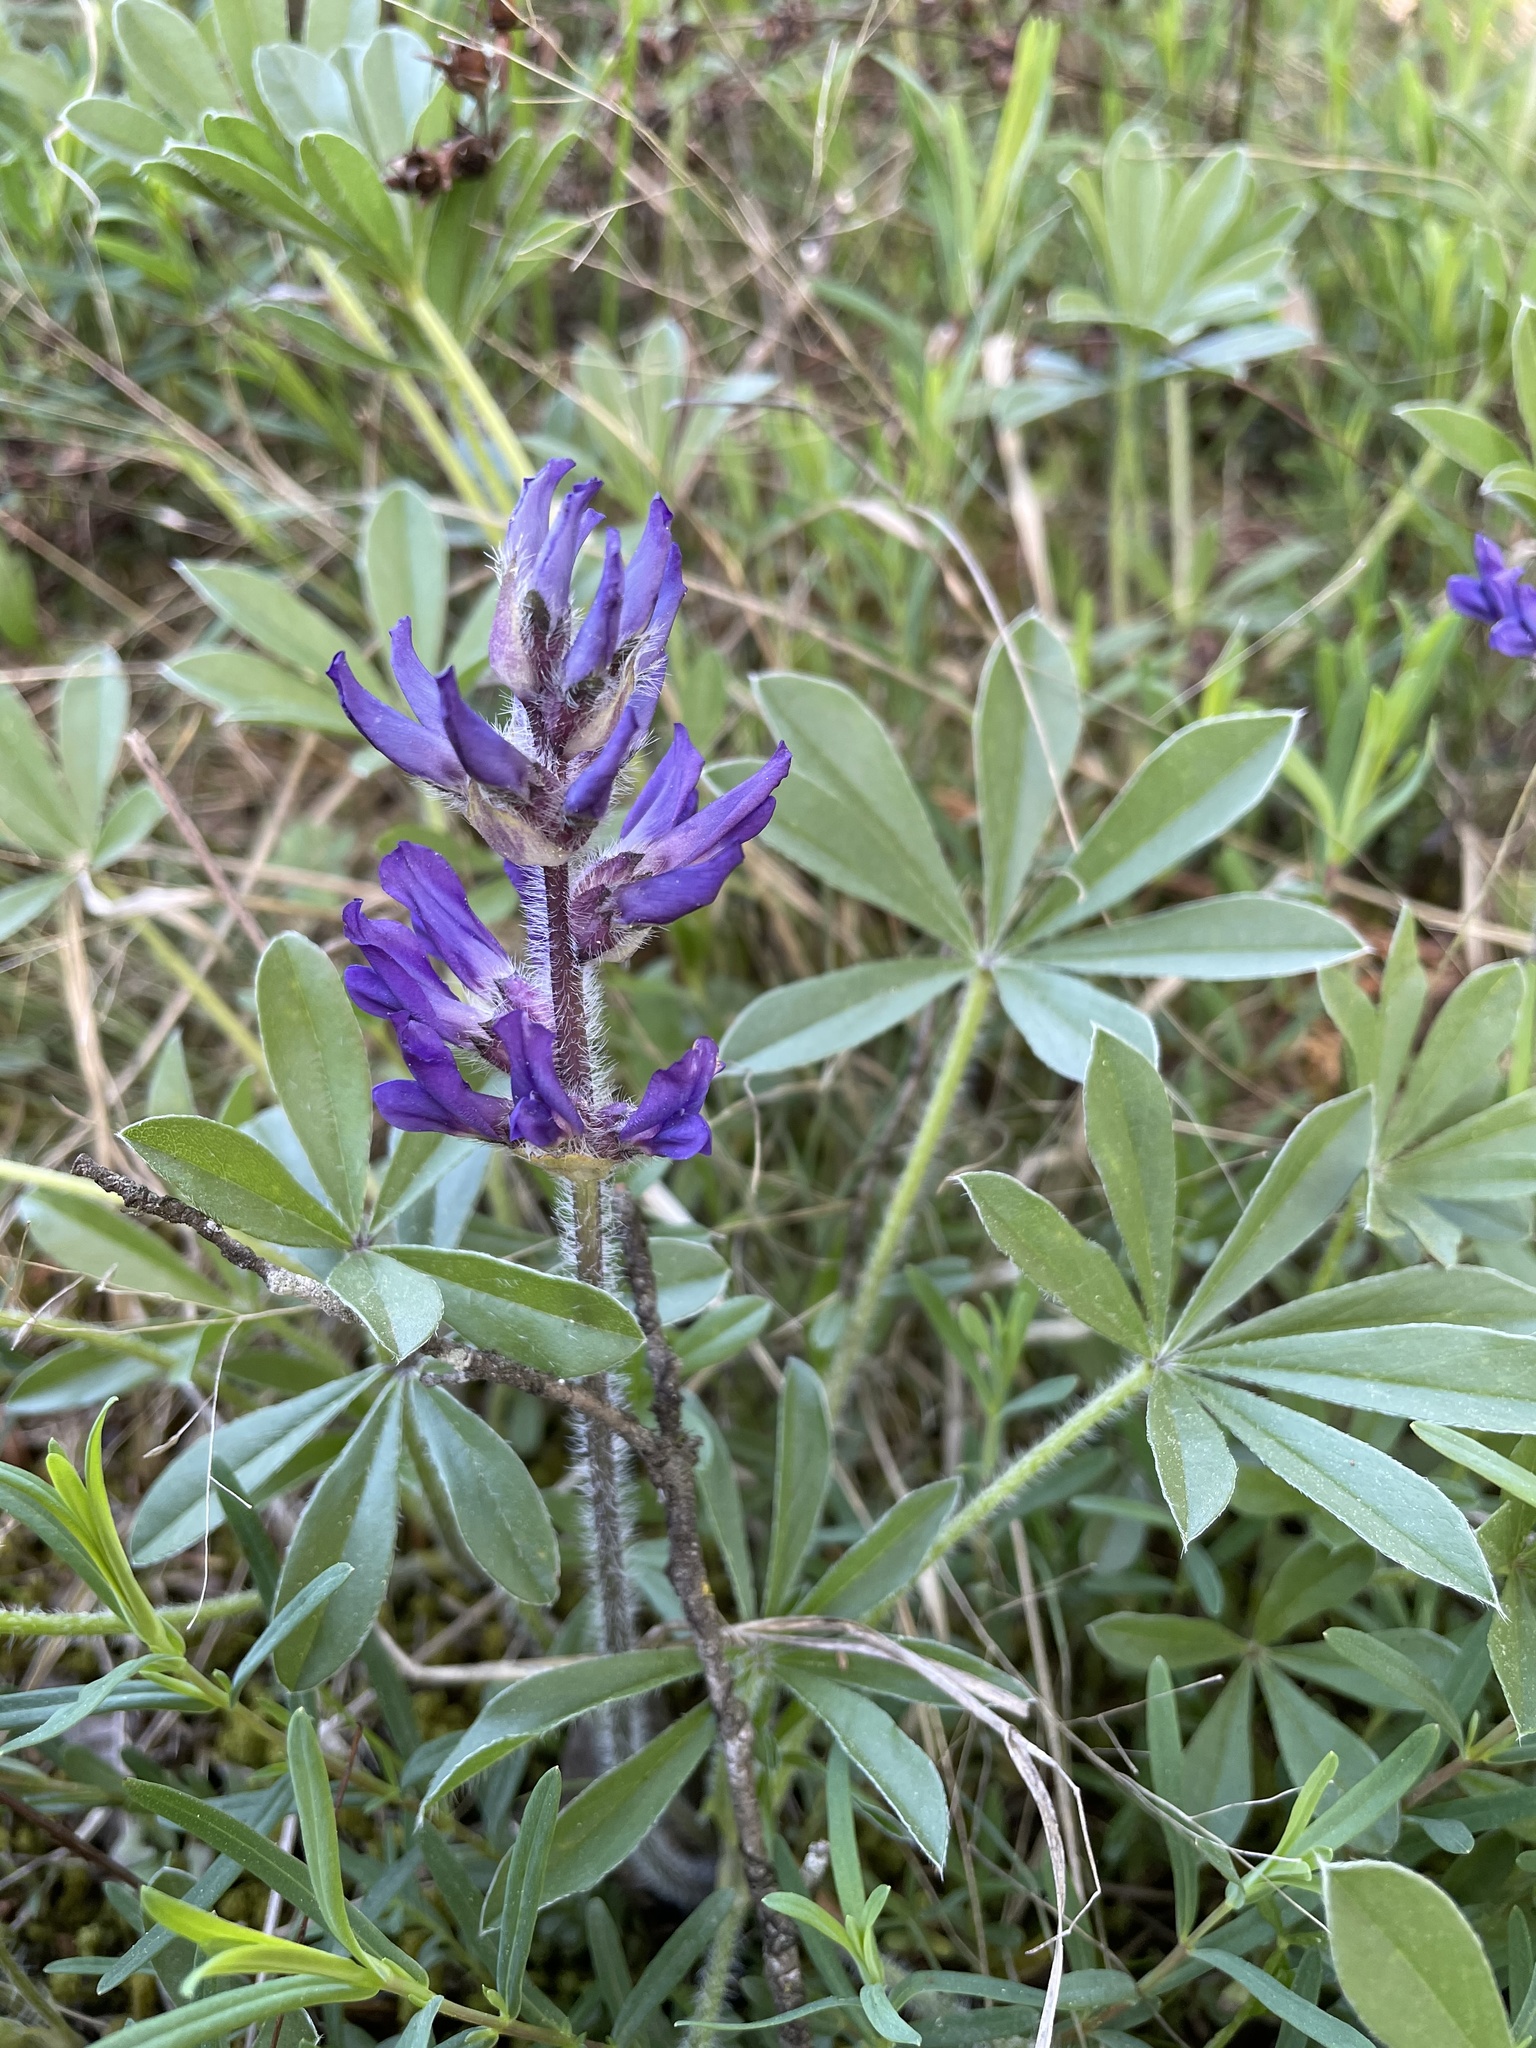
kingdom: Plantae
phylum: Tracheophyta
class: Magnoliopsida
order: Fabales
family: Fabaceae
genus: Pediomelum
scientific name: Pediomelum subacaule
